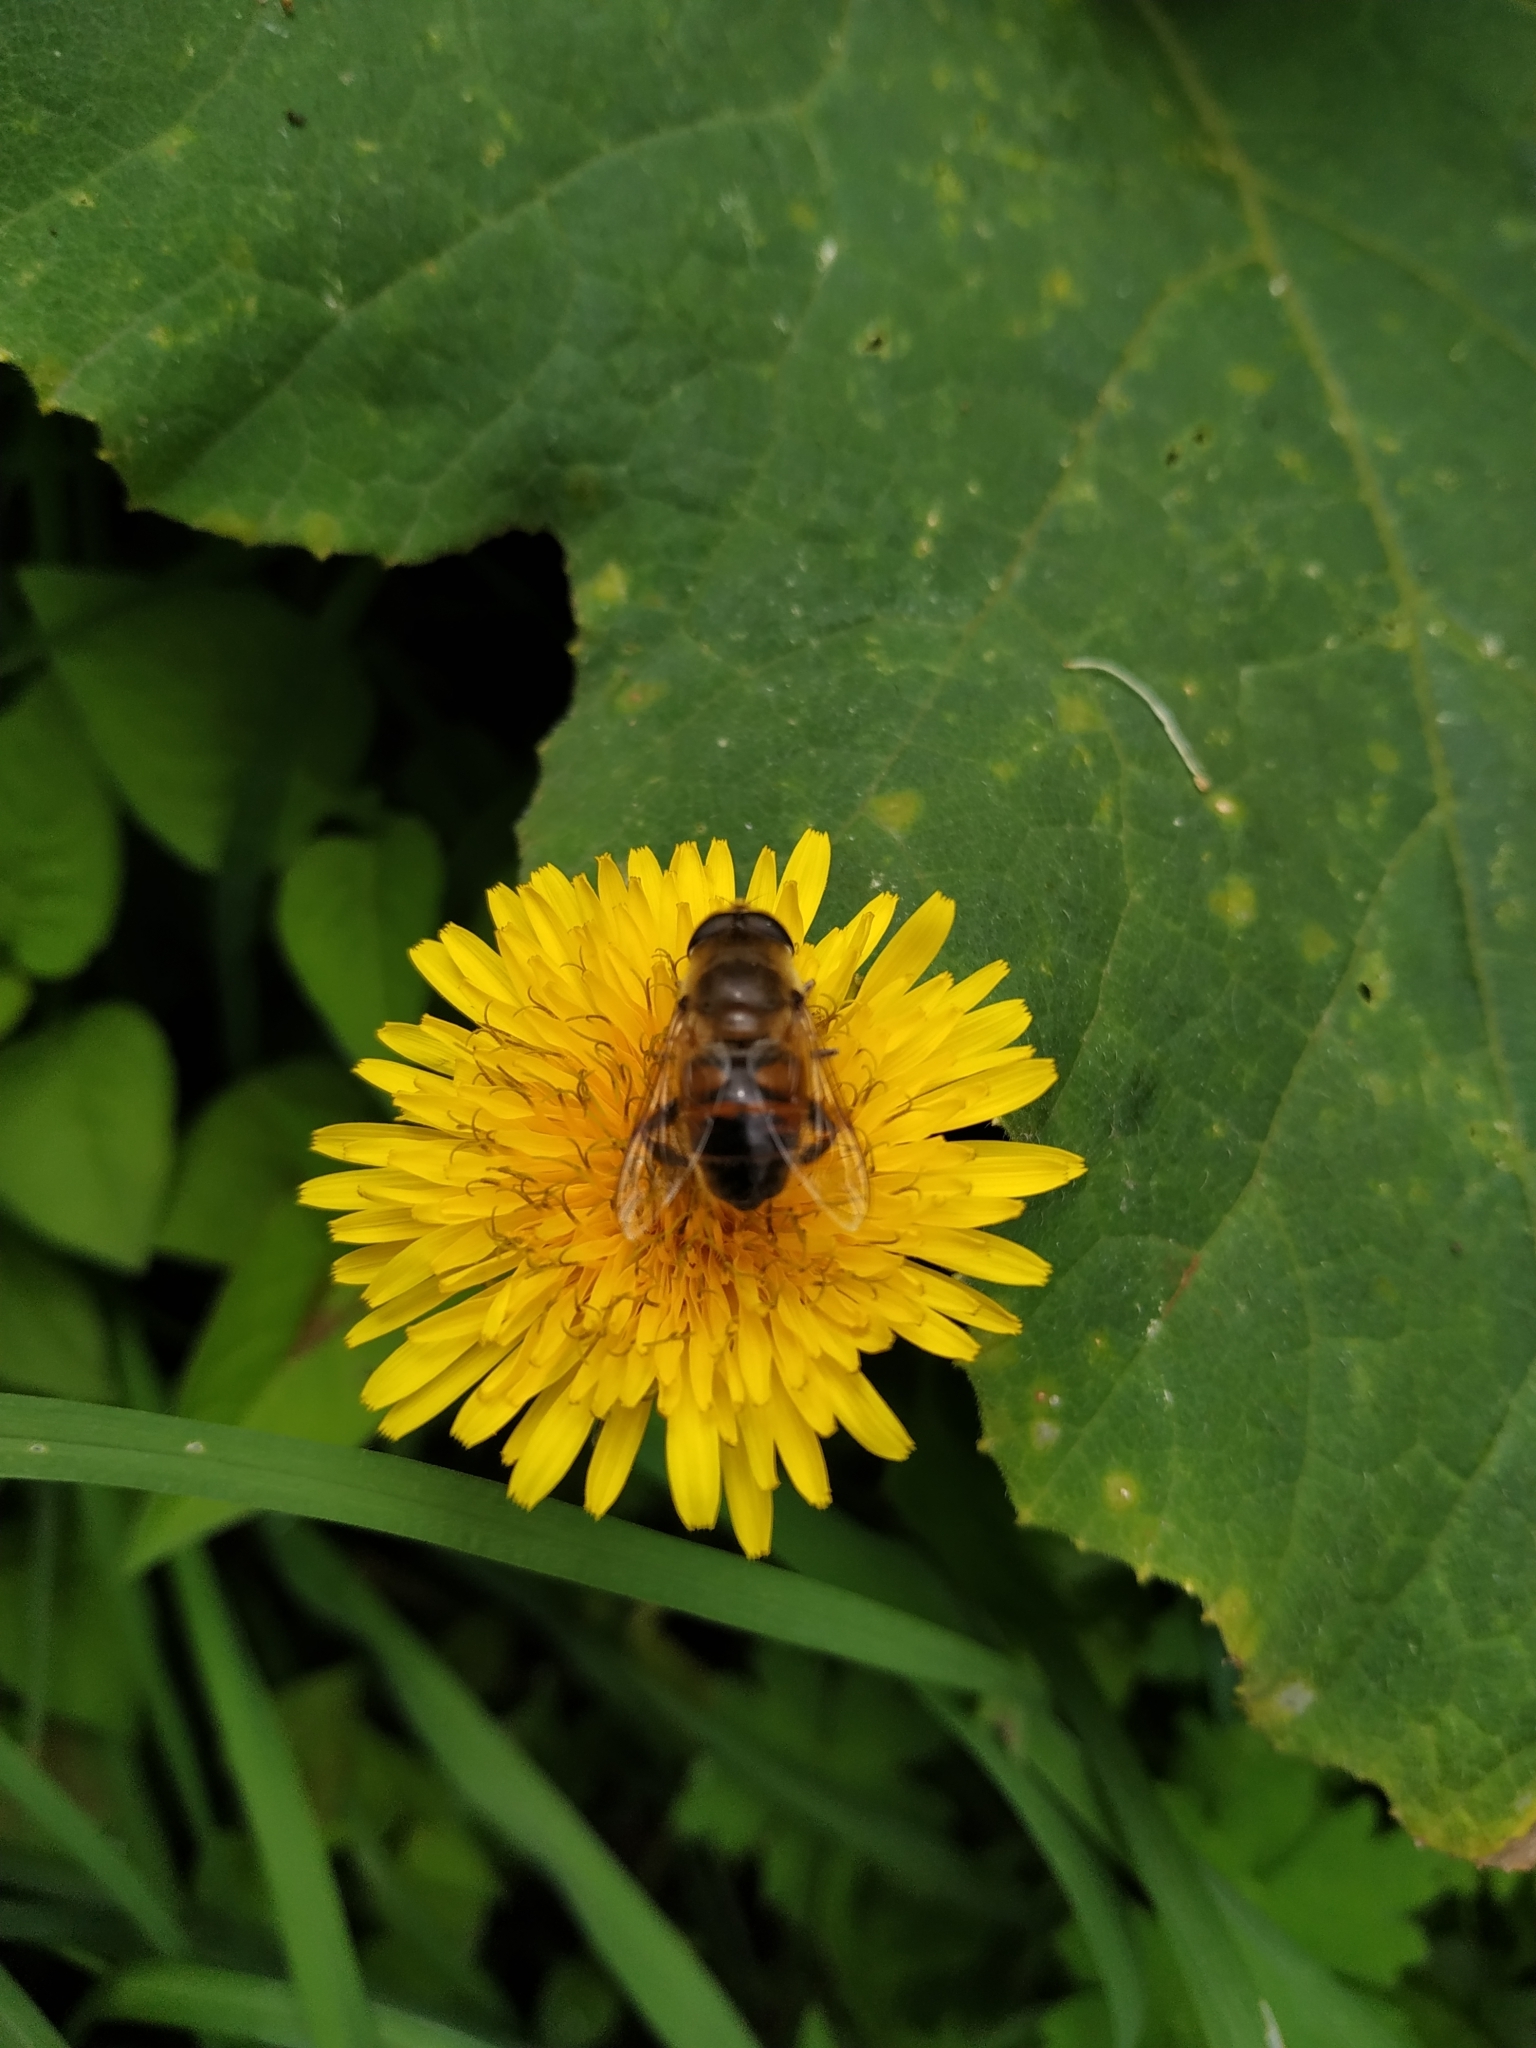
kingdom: Animalia
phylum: Arthropoda
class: Insecta
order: Diptera
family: Syrphidae
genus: Eristalis
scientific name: Eristalis tenax
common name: Drone fly
